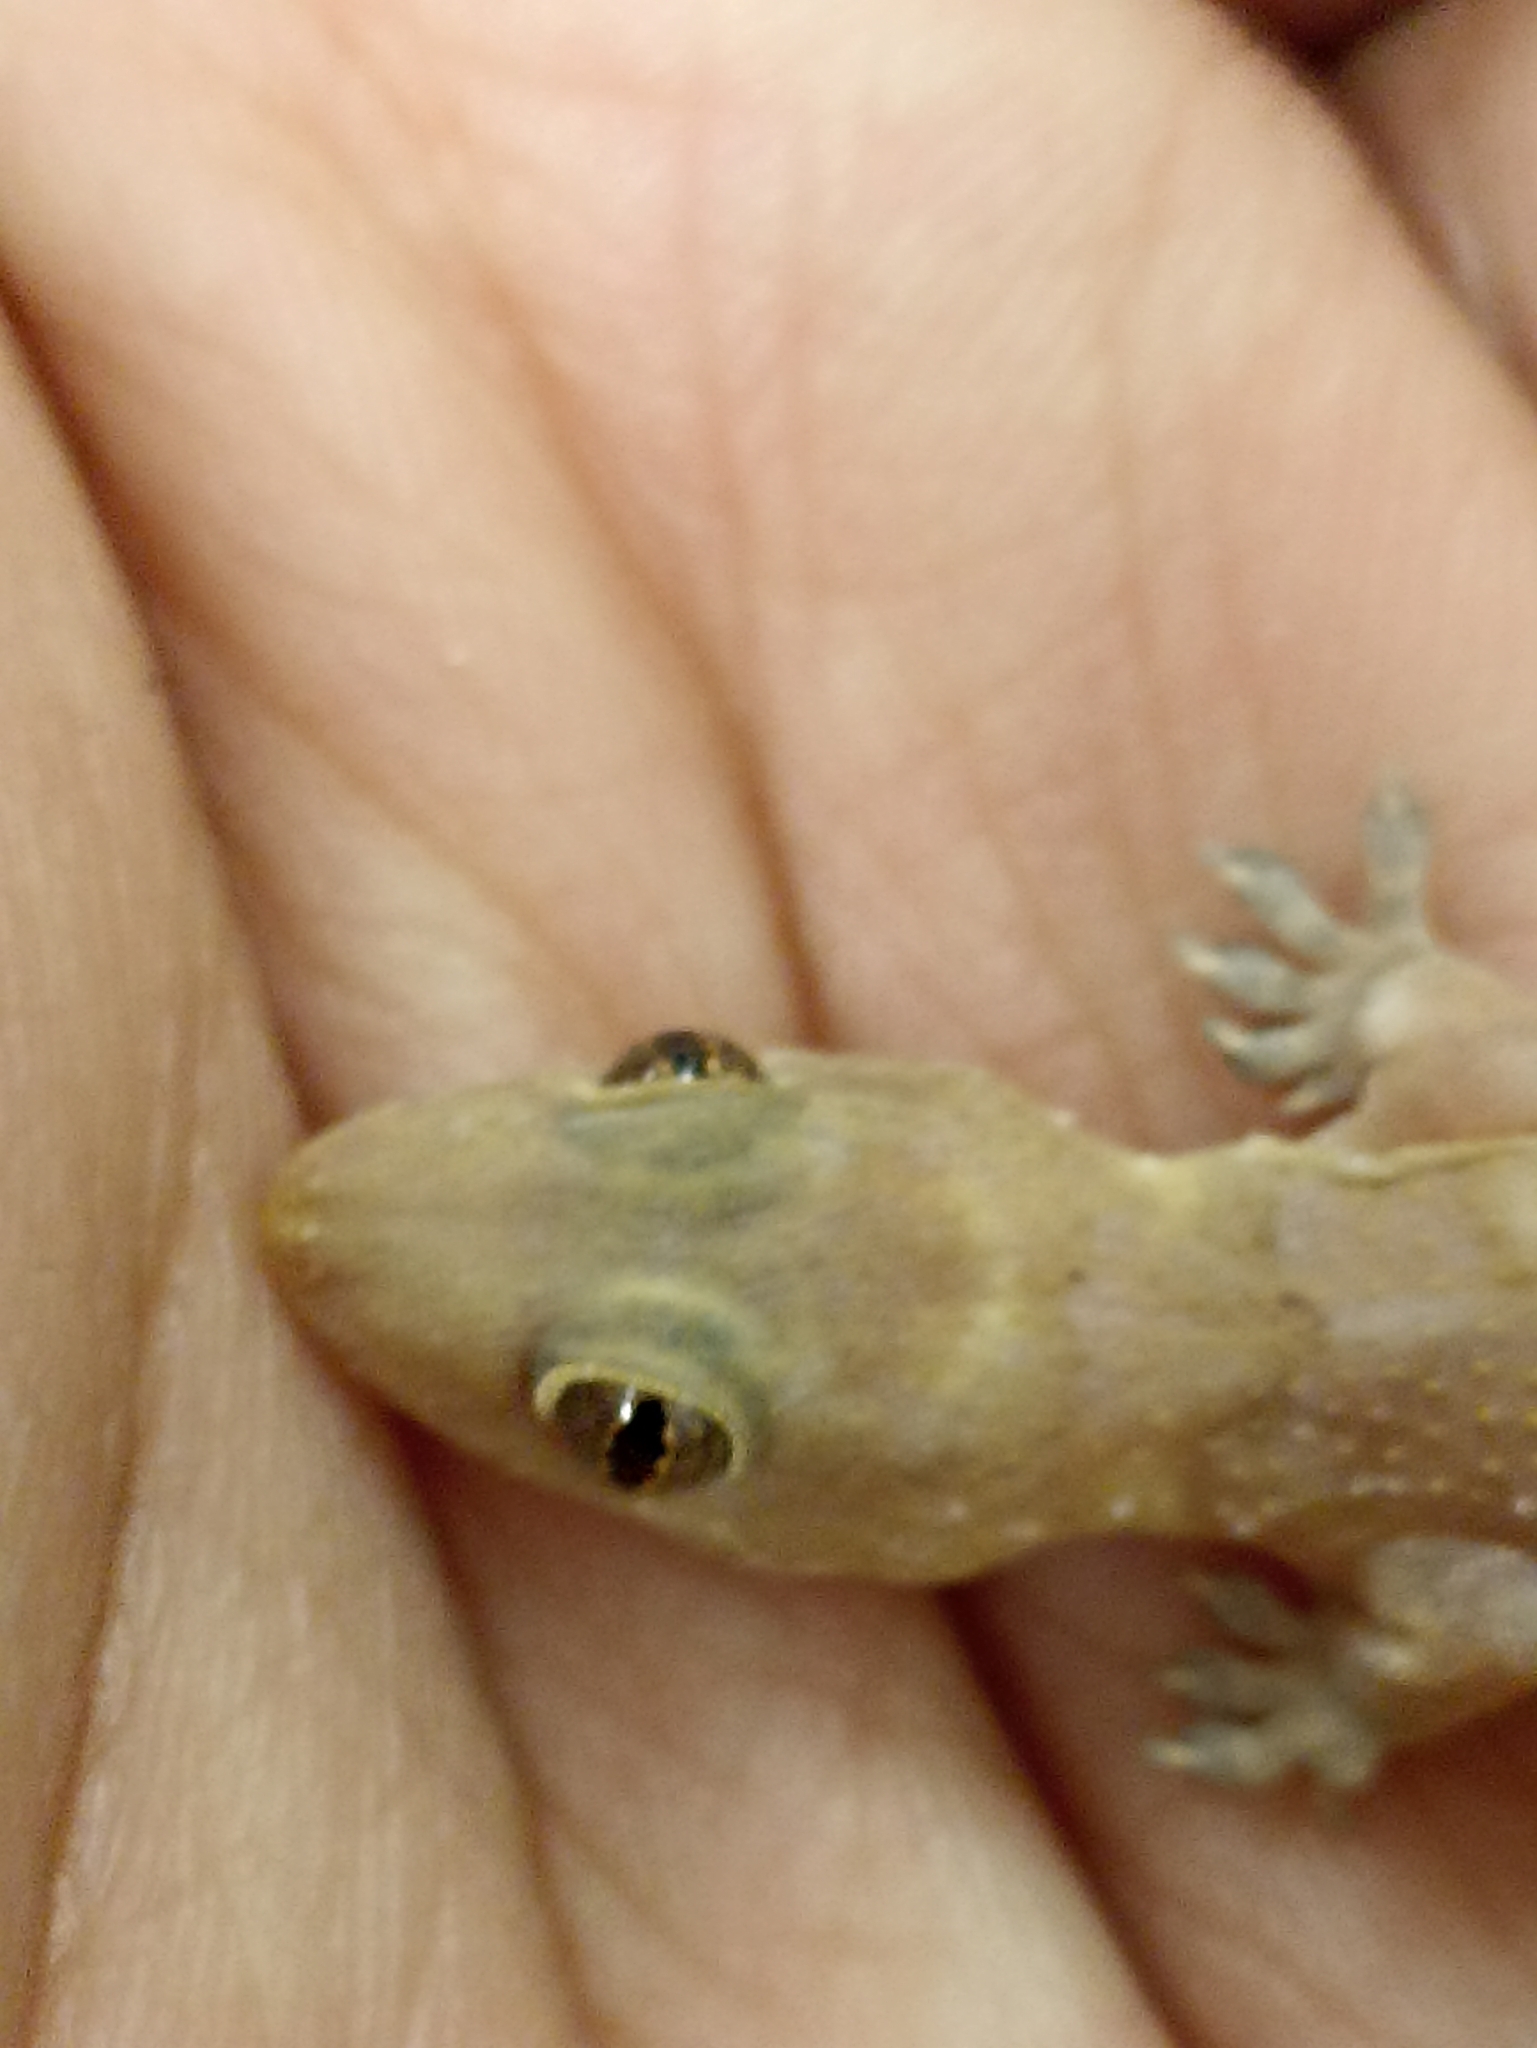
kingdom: Animalia
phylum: Chordata
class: Squamata
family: Gekkonidae
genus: Hemidactylus
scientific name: Hemidactylus mabouia
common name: House gecko
